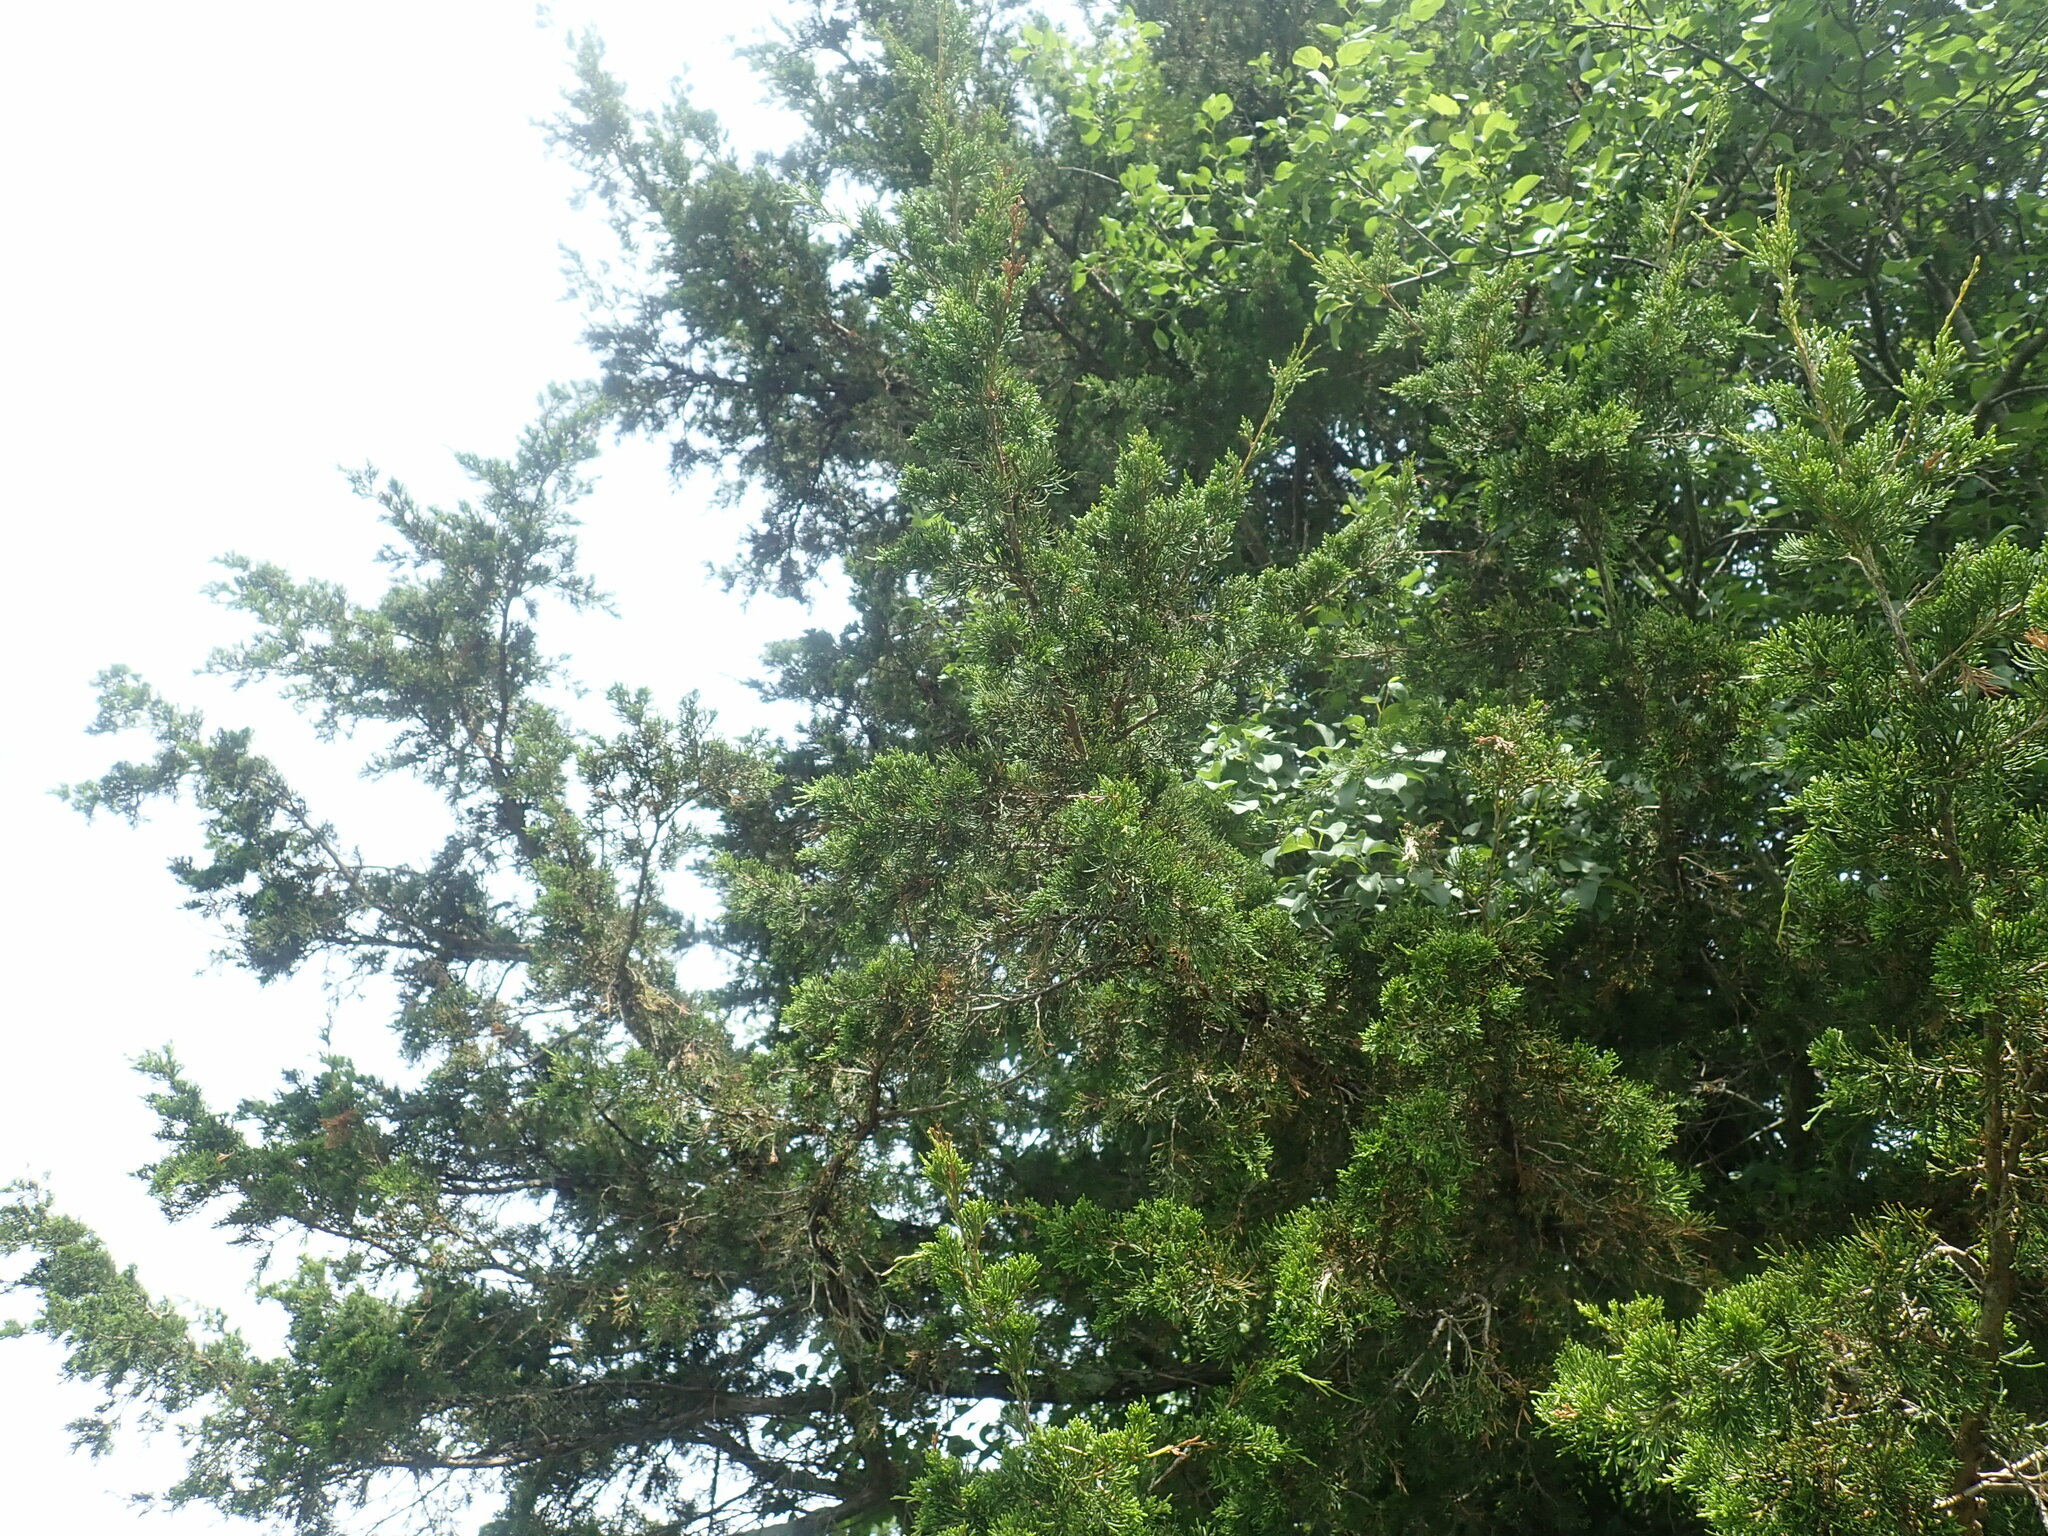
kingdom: Plantae
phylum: Tracheophyta
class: Pinopsida
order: Pinales
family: Cupressaceae
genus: Juniperus
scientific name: Juniperus virginiana
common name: Red juniper
